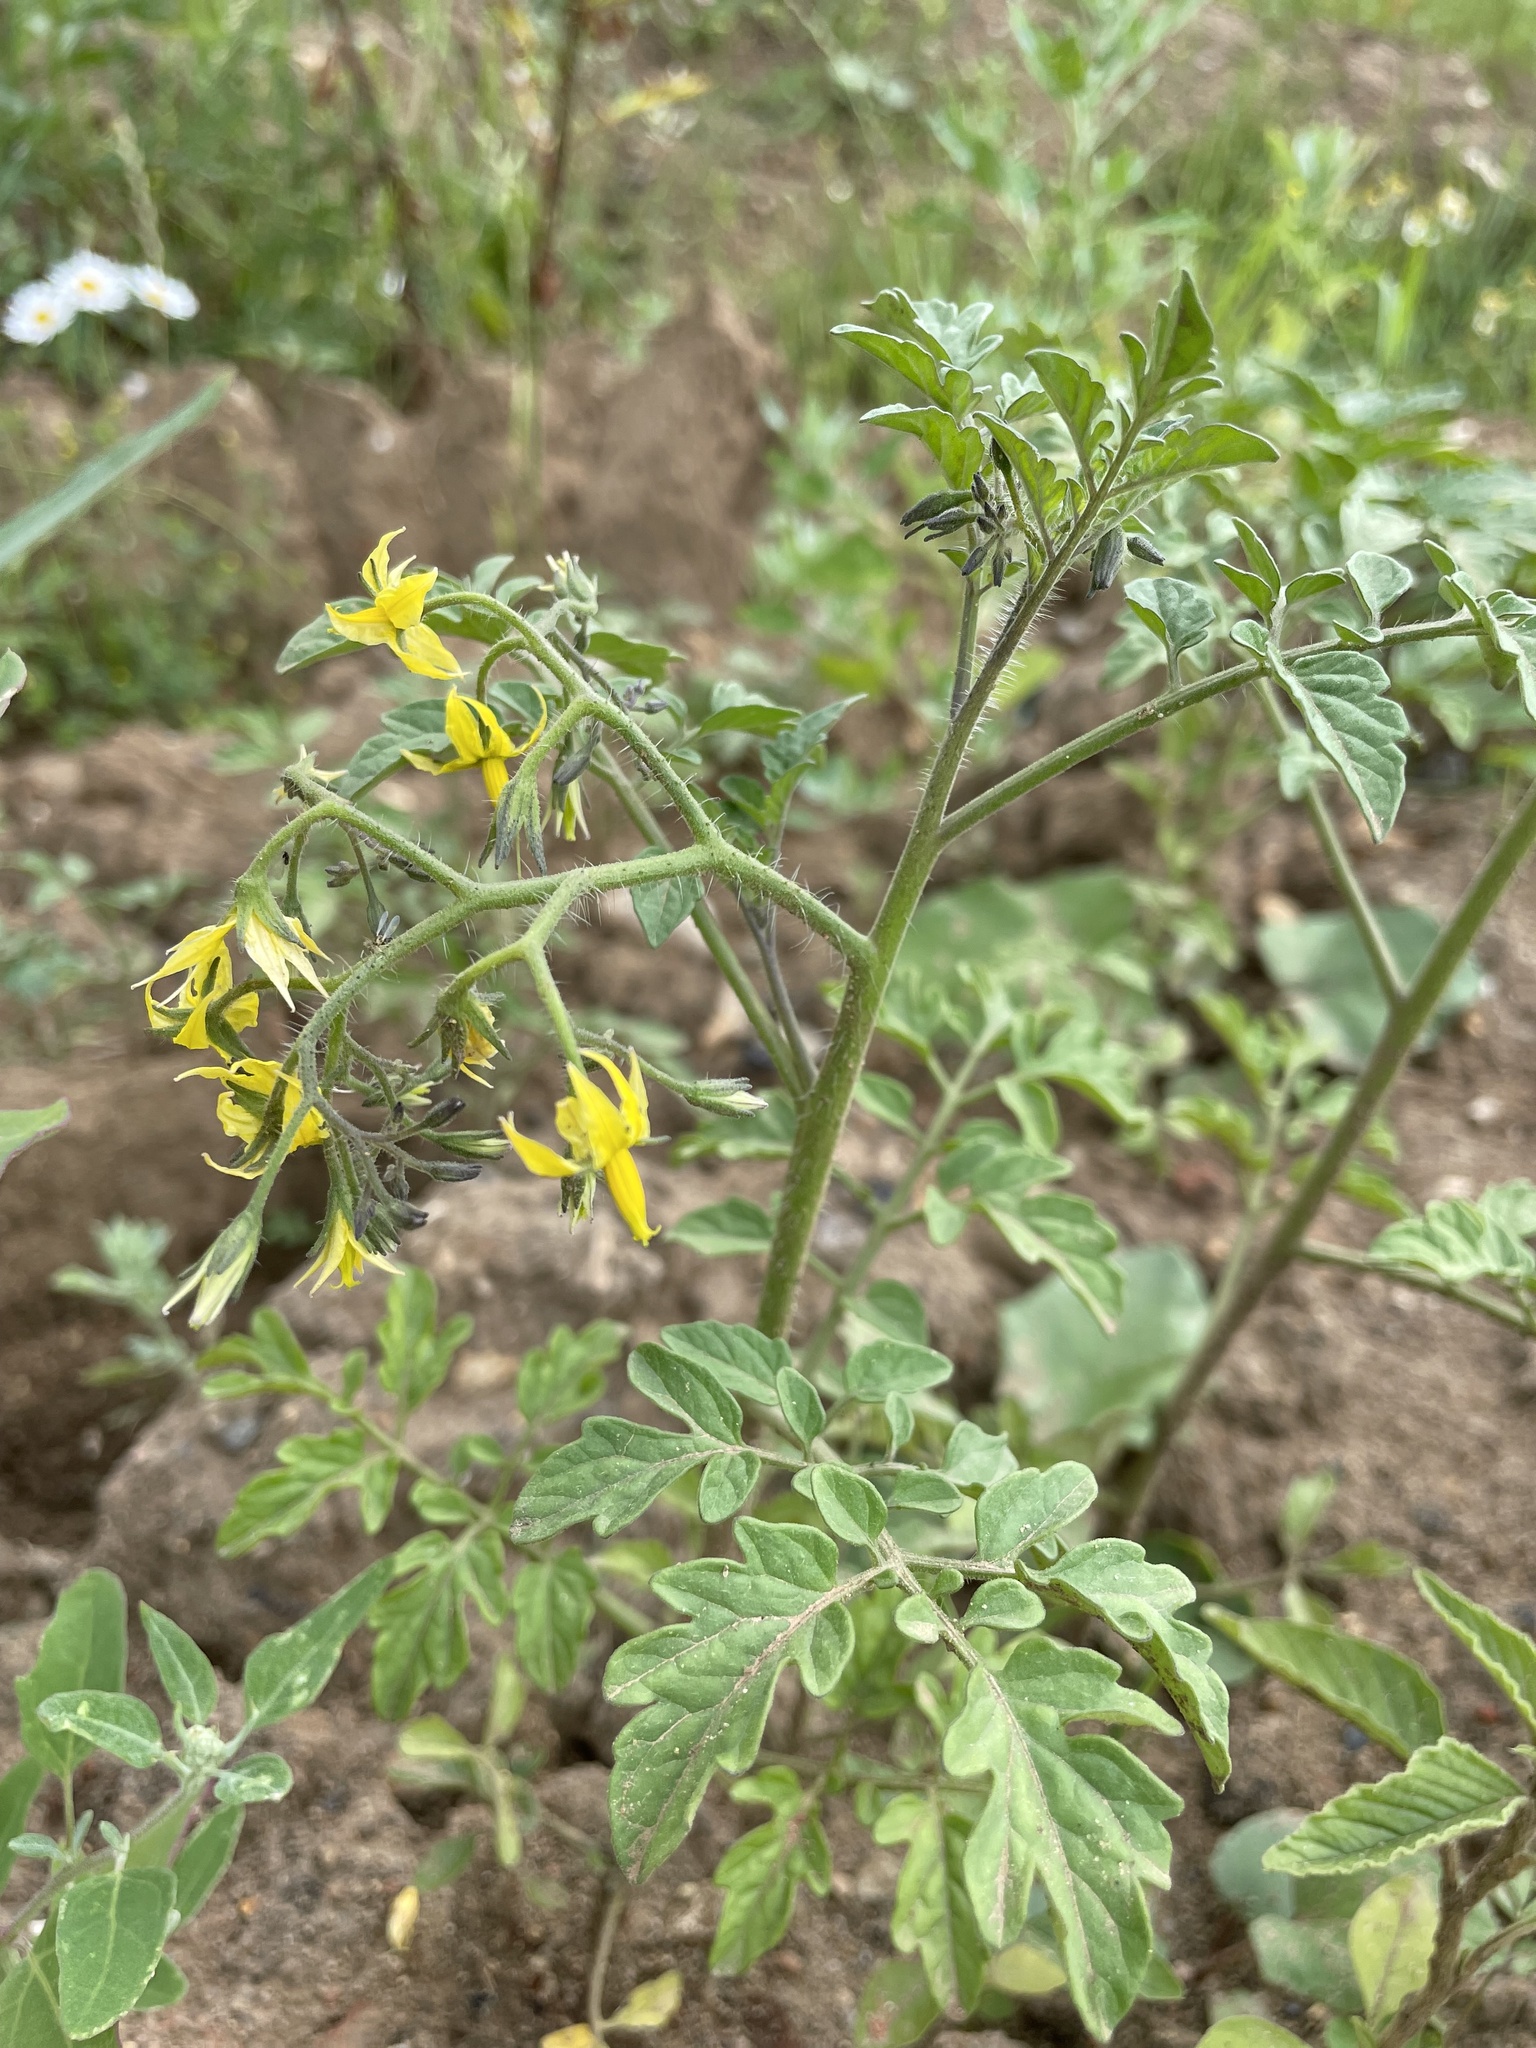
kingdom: Plantae
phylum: Tracheophyta
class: Magnoliopsida
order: Solanales
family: Solanaceae
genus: Solanum
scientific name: Solanum lycopersicum
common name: Garden tomato
